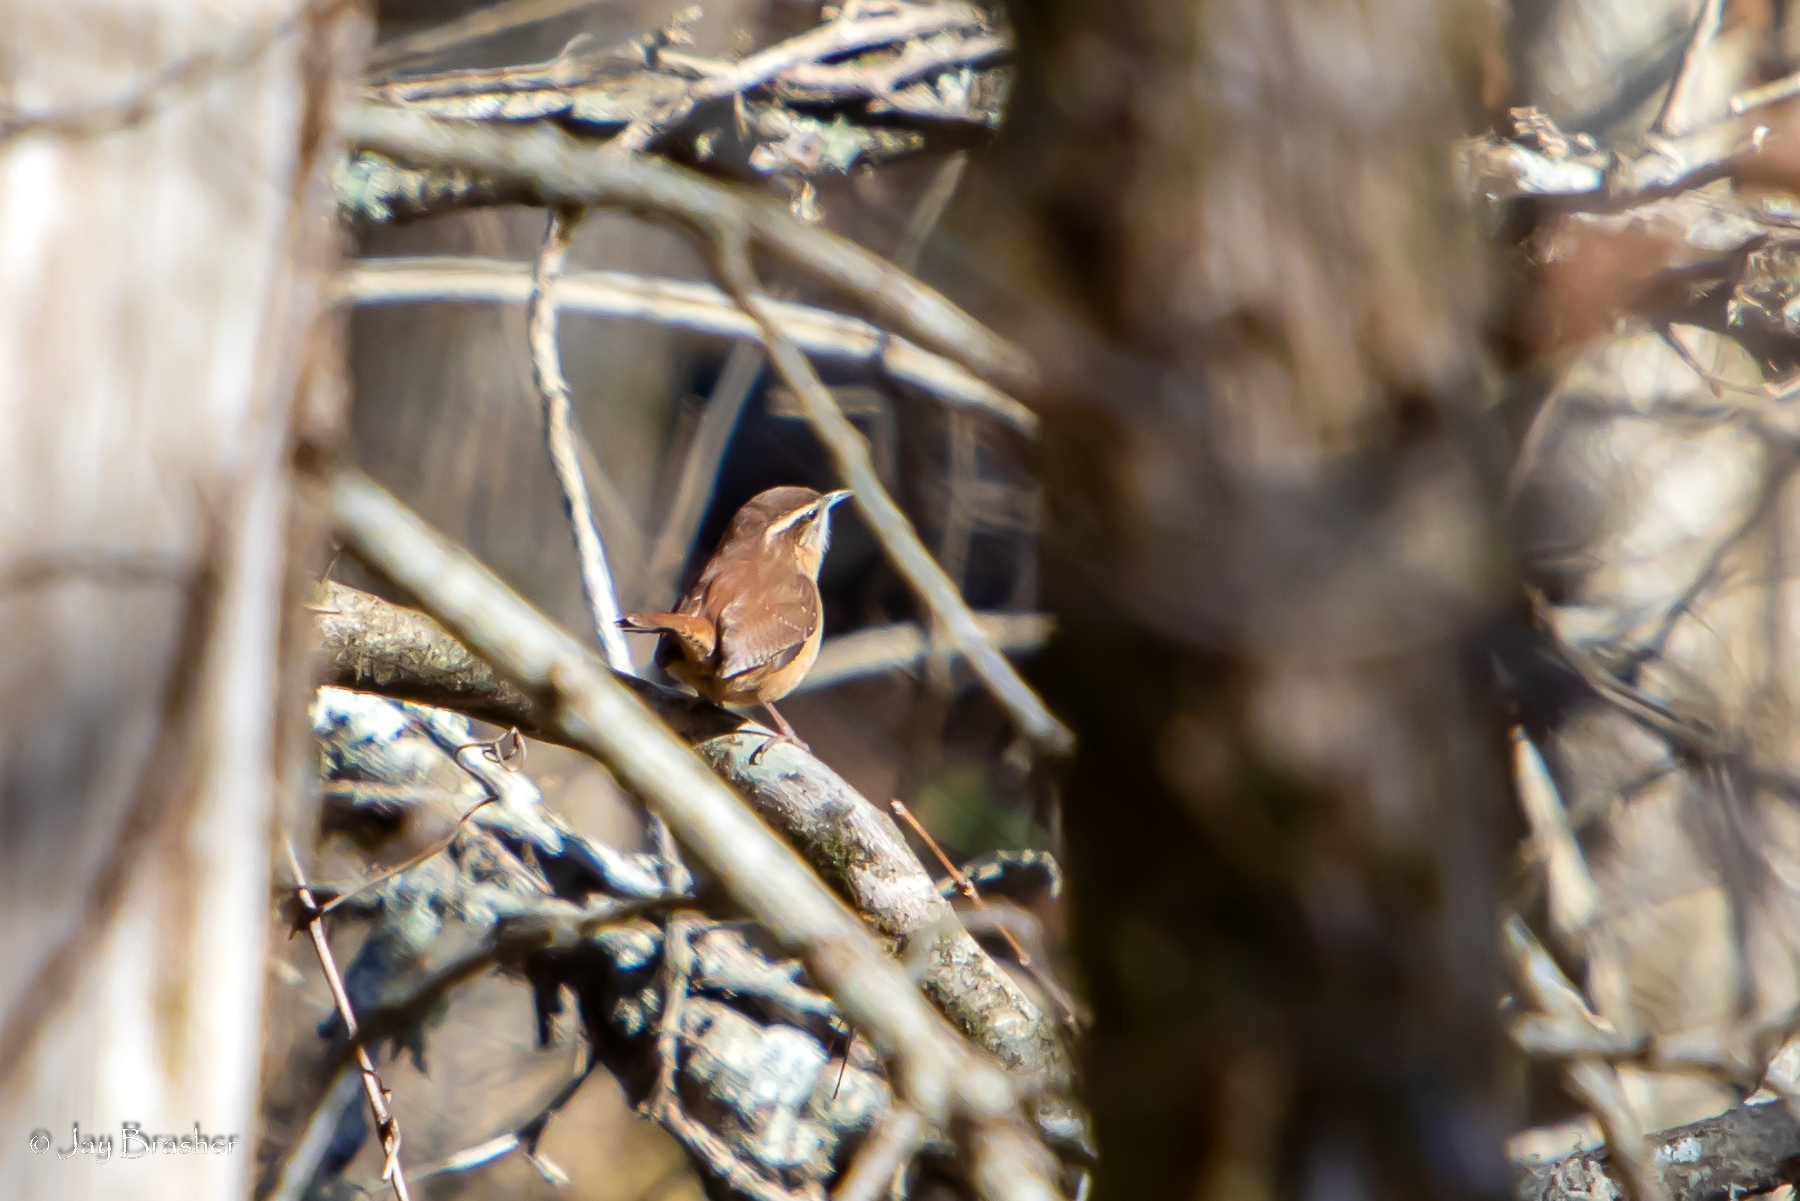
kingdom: Animalia
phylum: Chordata
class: Aves
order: Passeriformes
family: Troglodytidae
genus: Thryothorus
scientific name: Thryothorus ludovicianus
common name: Carolina wren
